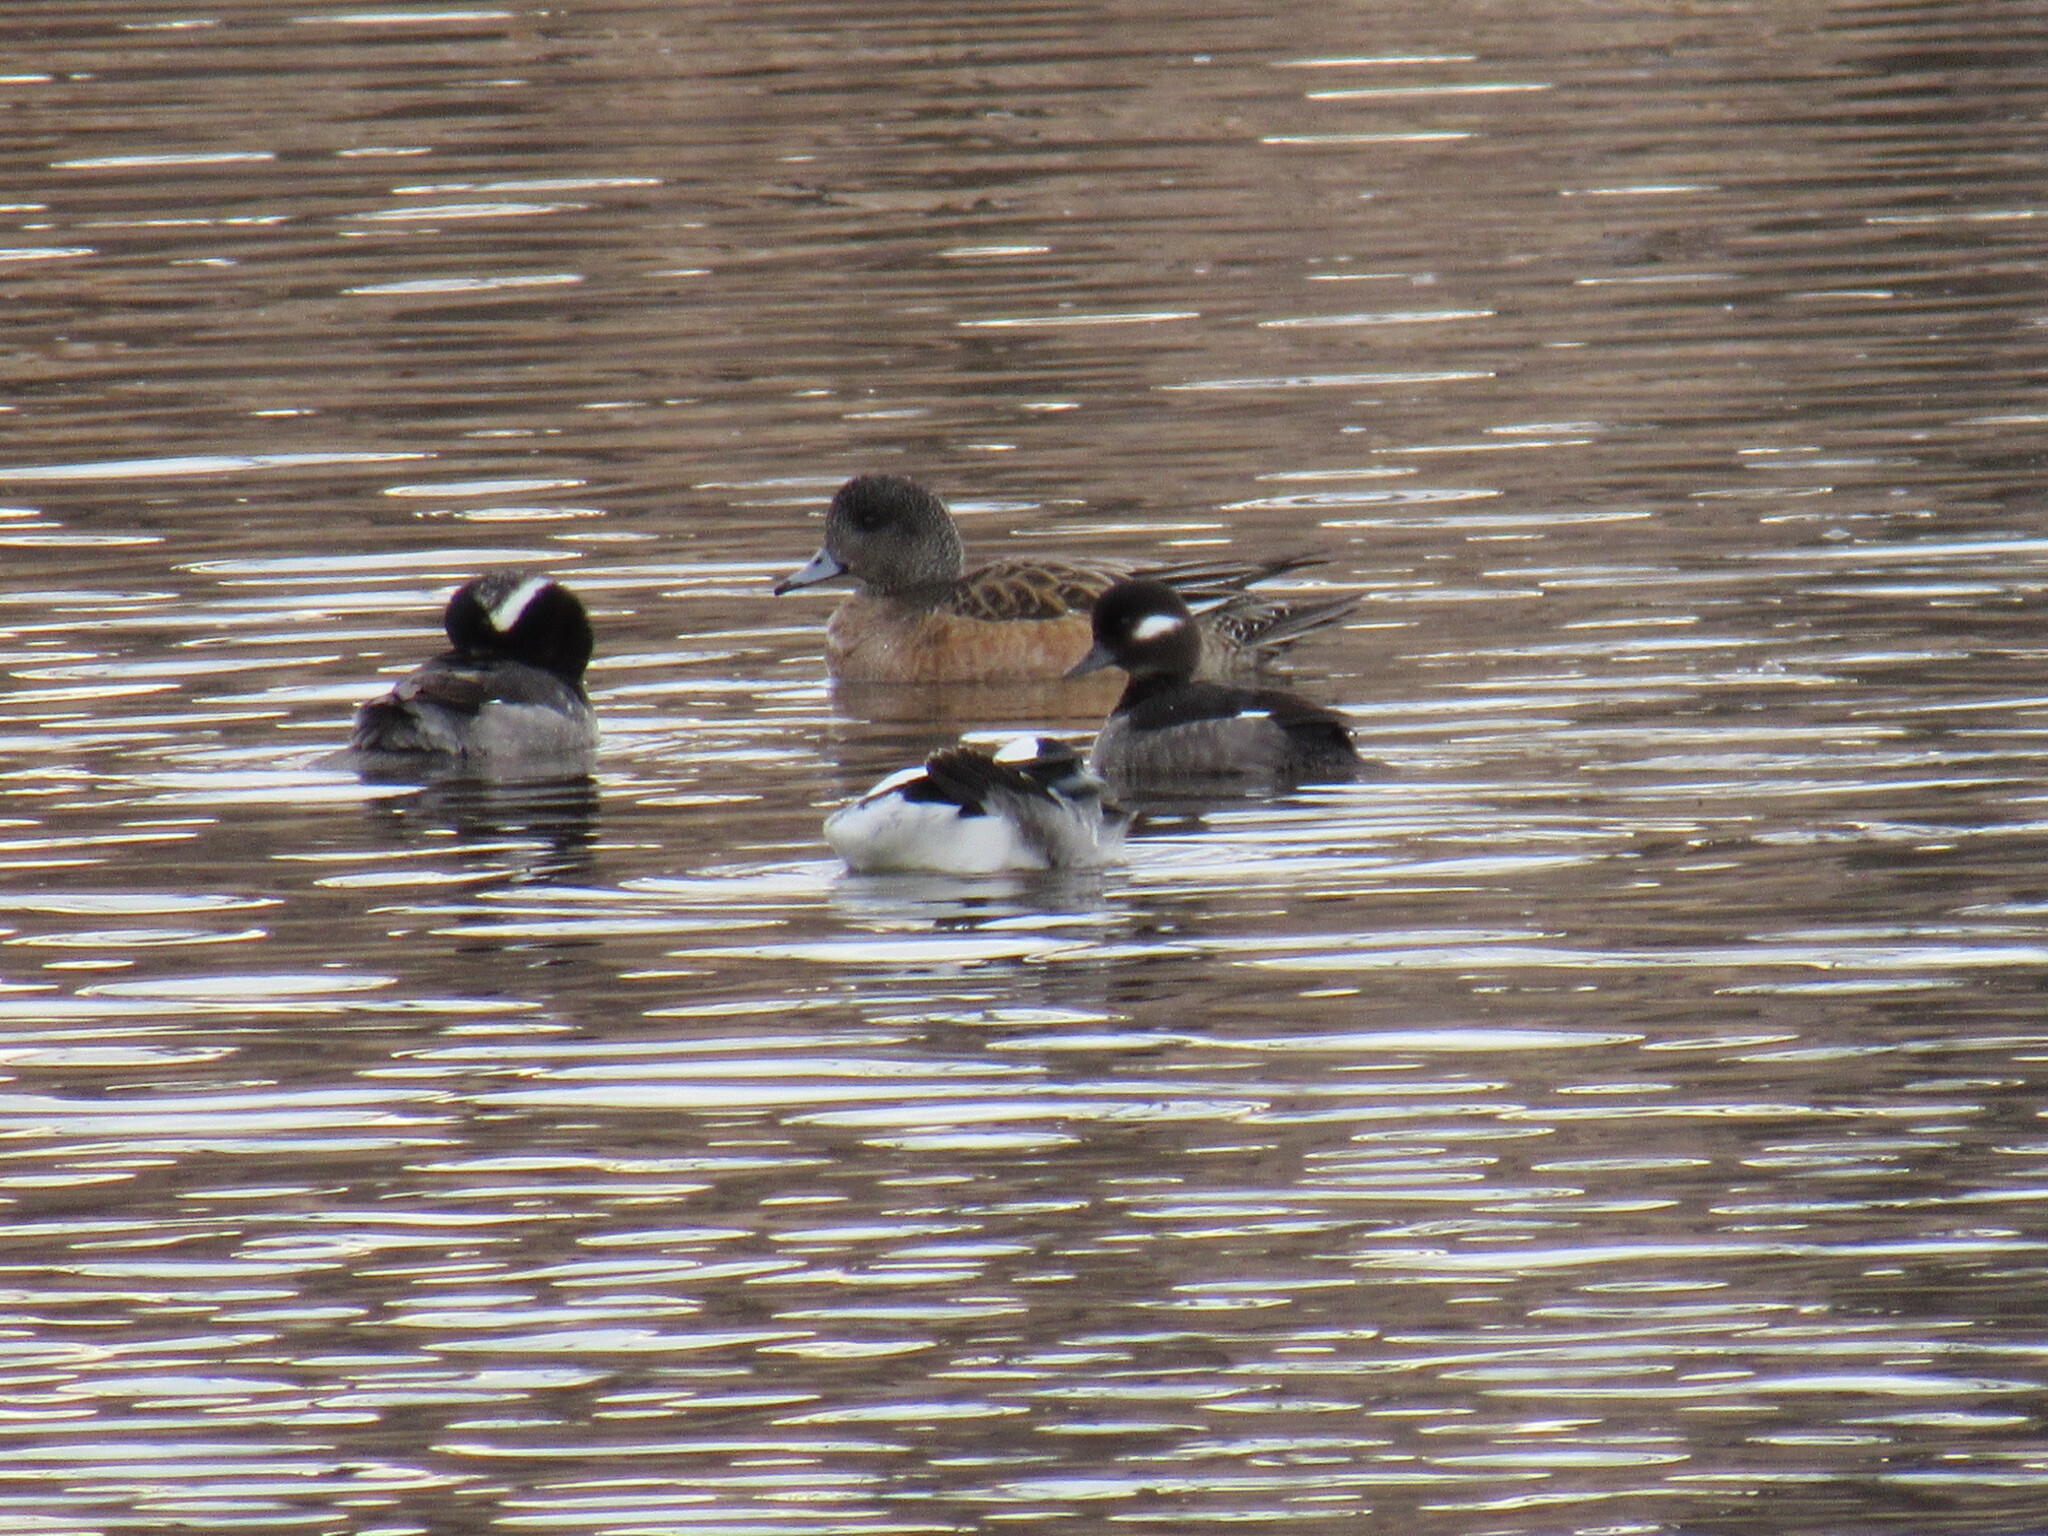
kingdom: Animalia
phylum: Chordata
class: Aves
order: Anseriformes
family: Anatidae
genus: Bucephala
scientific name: Bucephala albeola
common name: Bufflehead
